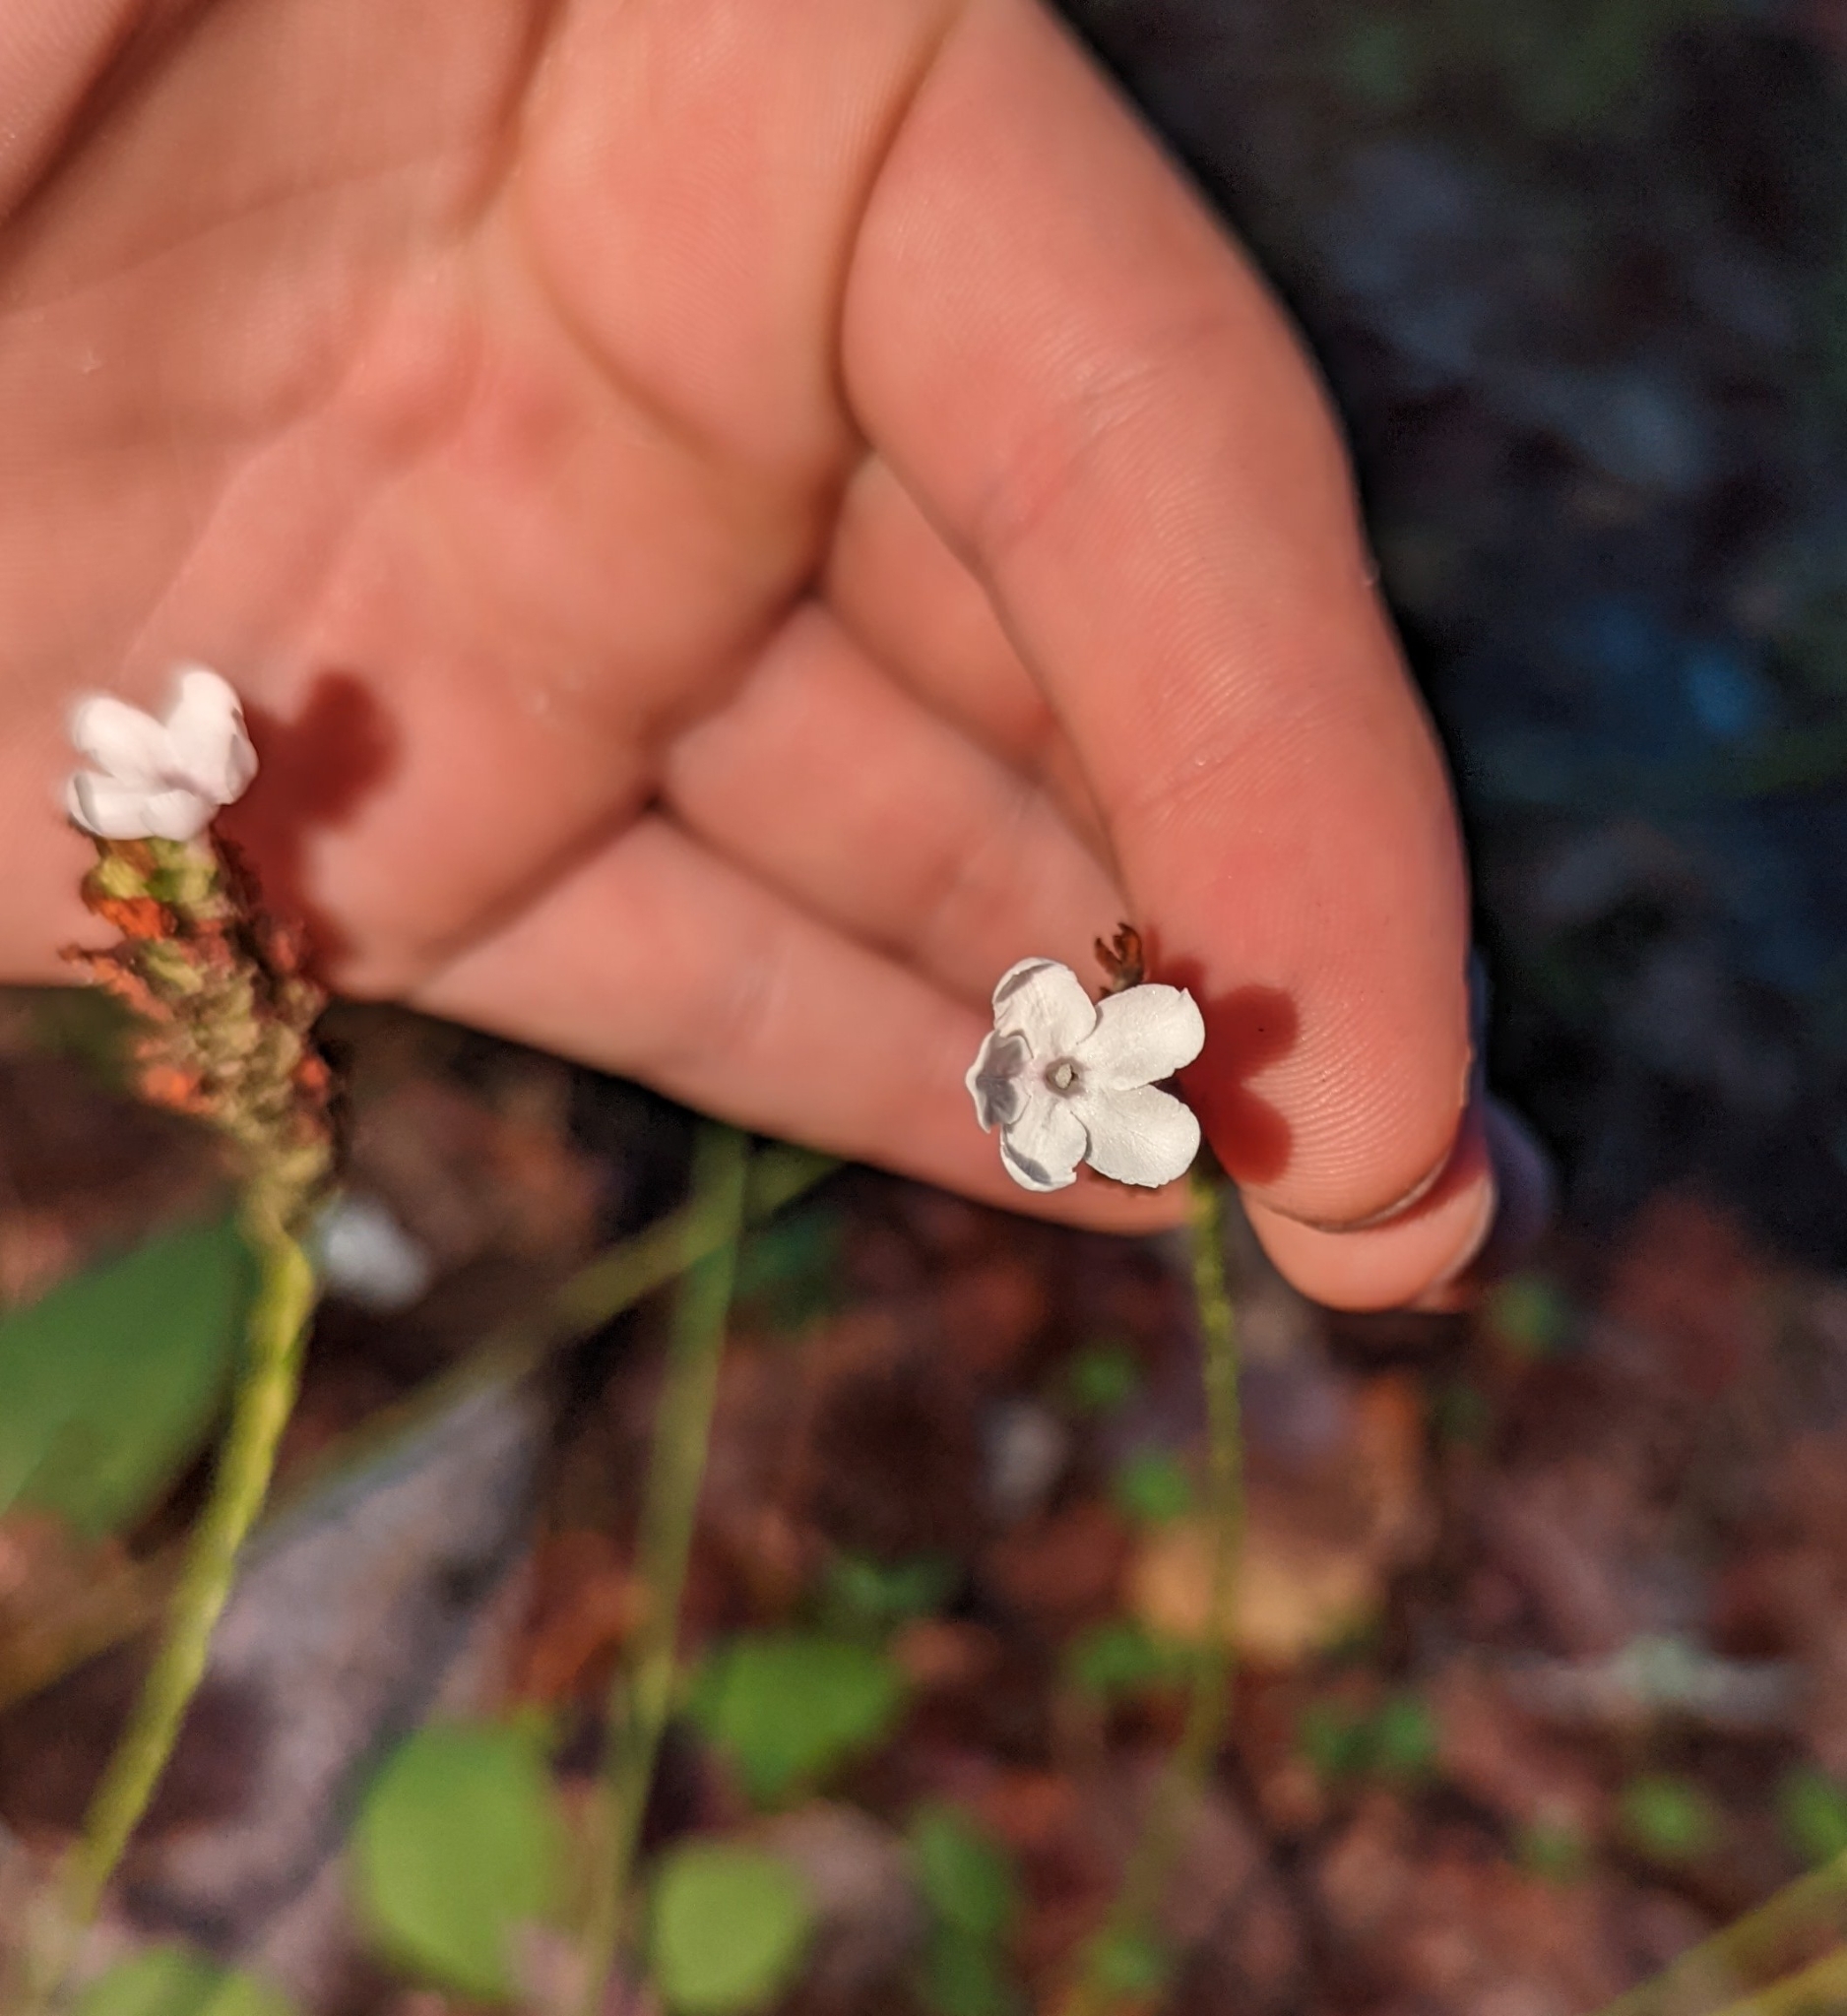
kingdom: Plantae
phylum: Tracheophyta
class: Magnoliopsida
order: Lamiales
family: Acanthaceae
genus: Elytraria
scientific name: Elytraria caroliniensis
